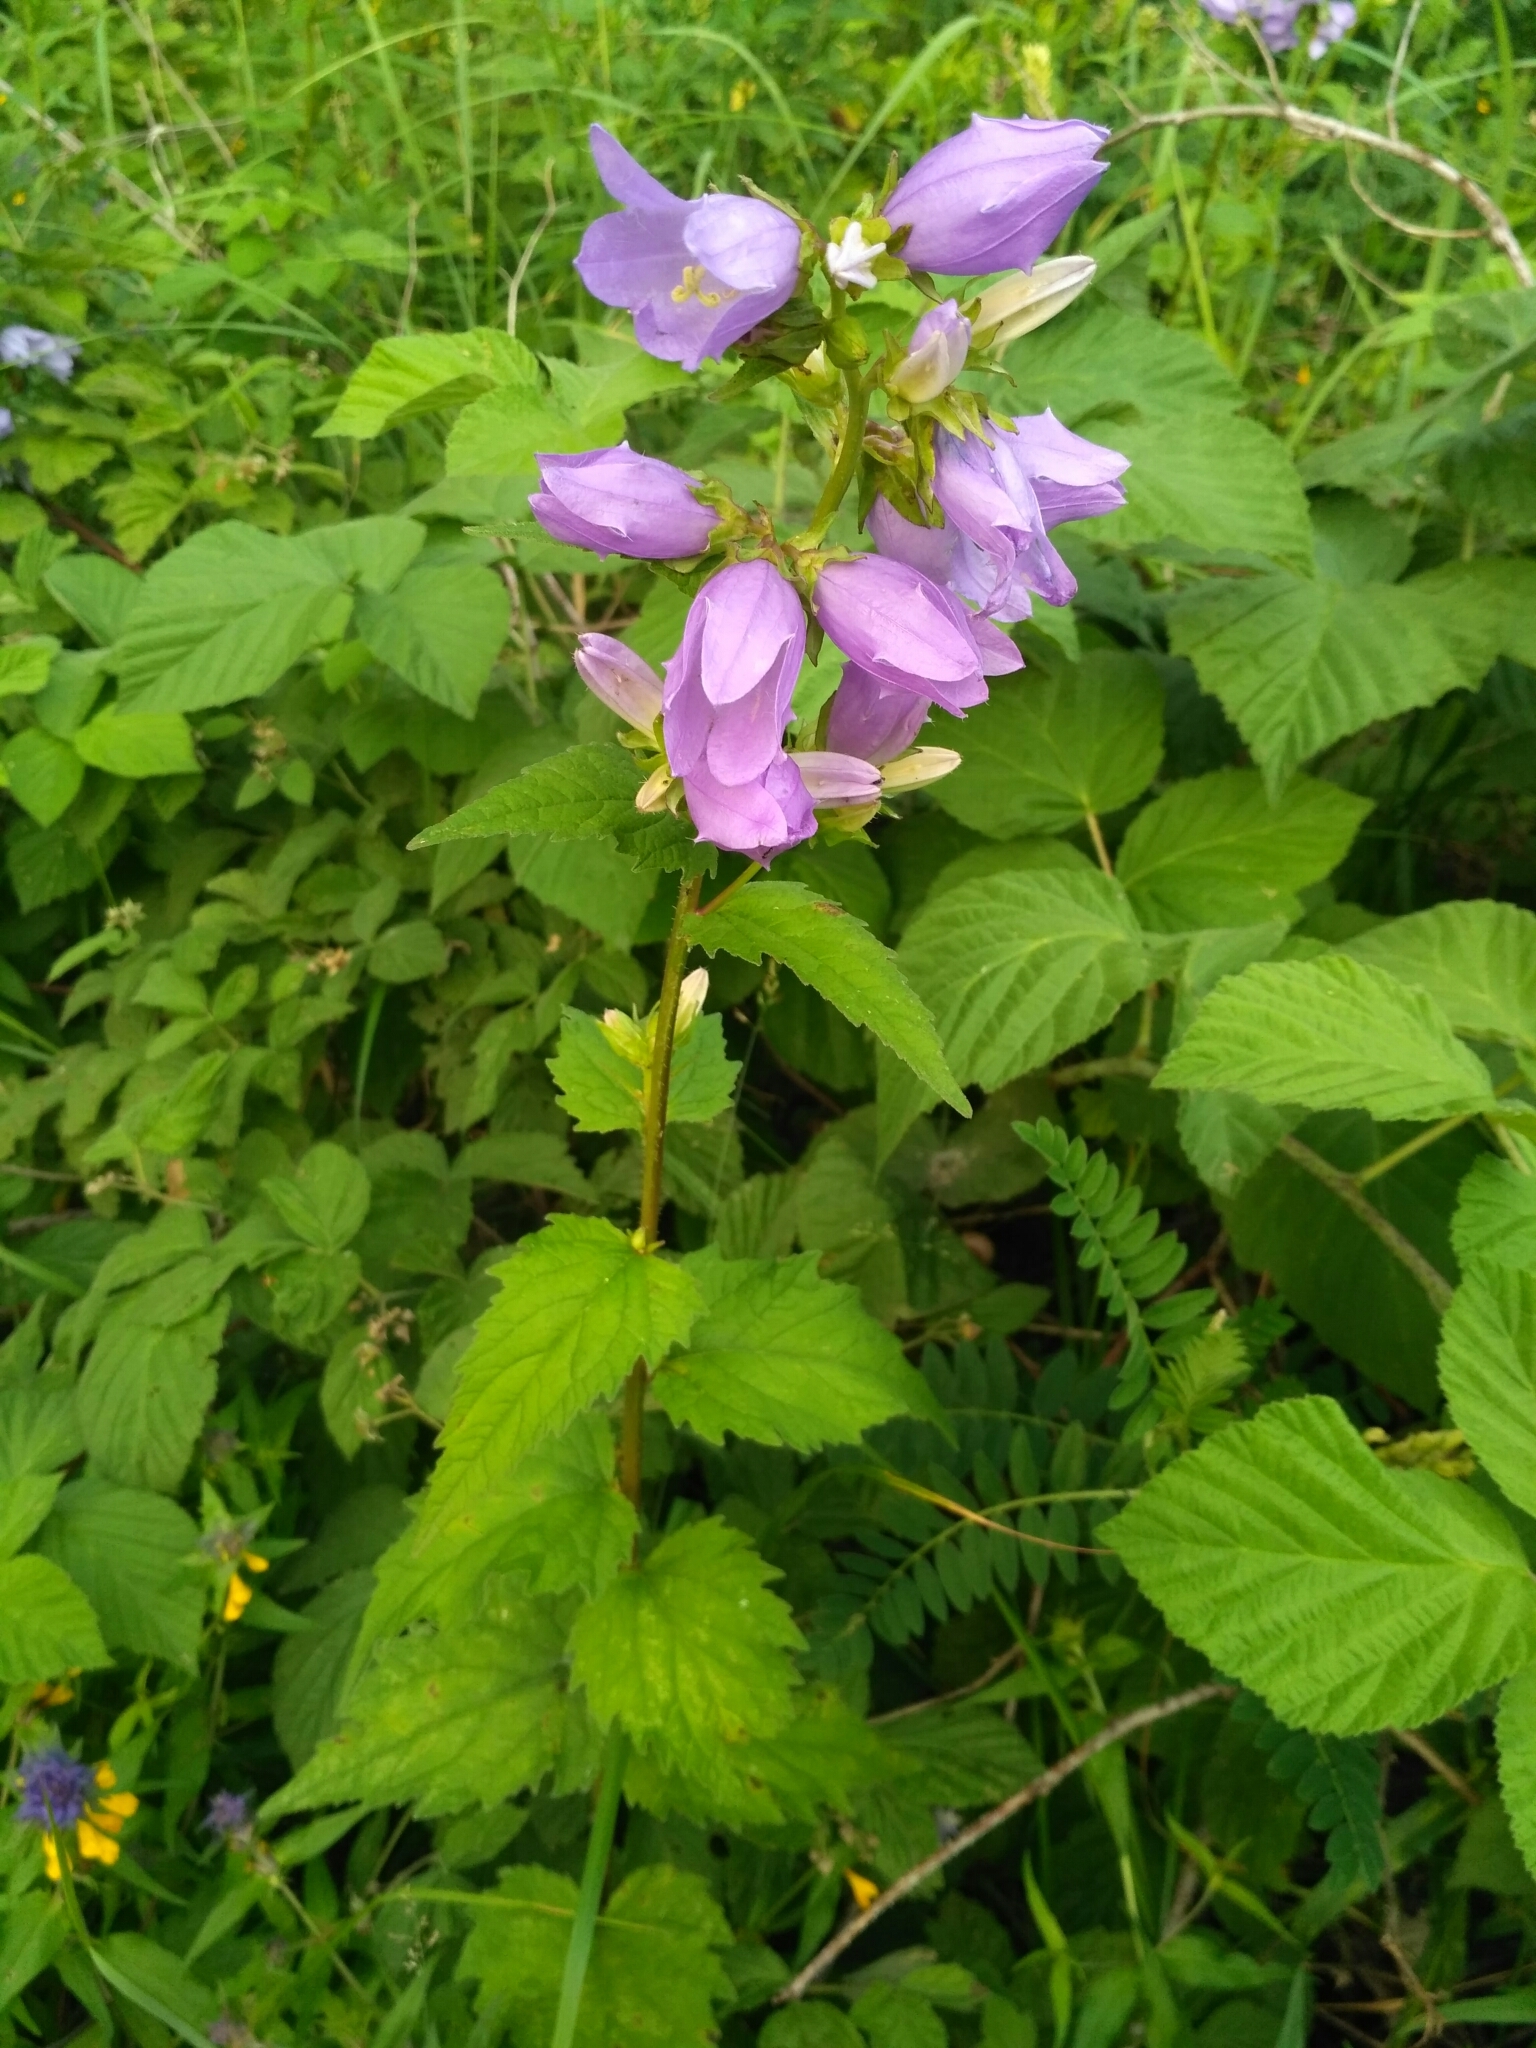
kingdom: Plantae
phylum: Tracheophyta
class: Magnoliopsida
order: Asterales
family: Campanulaceae
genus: Campanula
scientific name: Campanula trachelium
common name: Nettle-leaved bellflower
